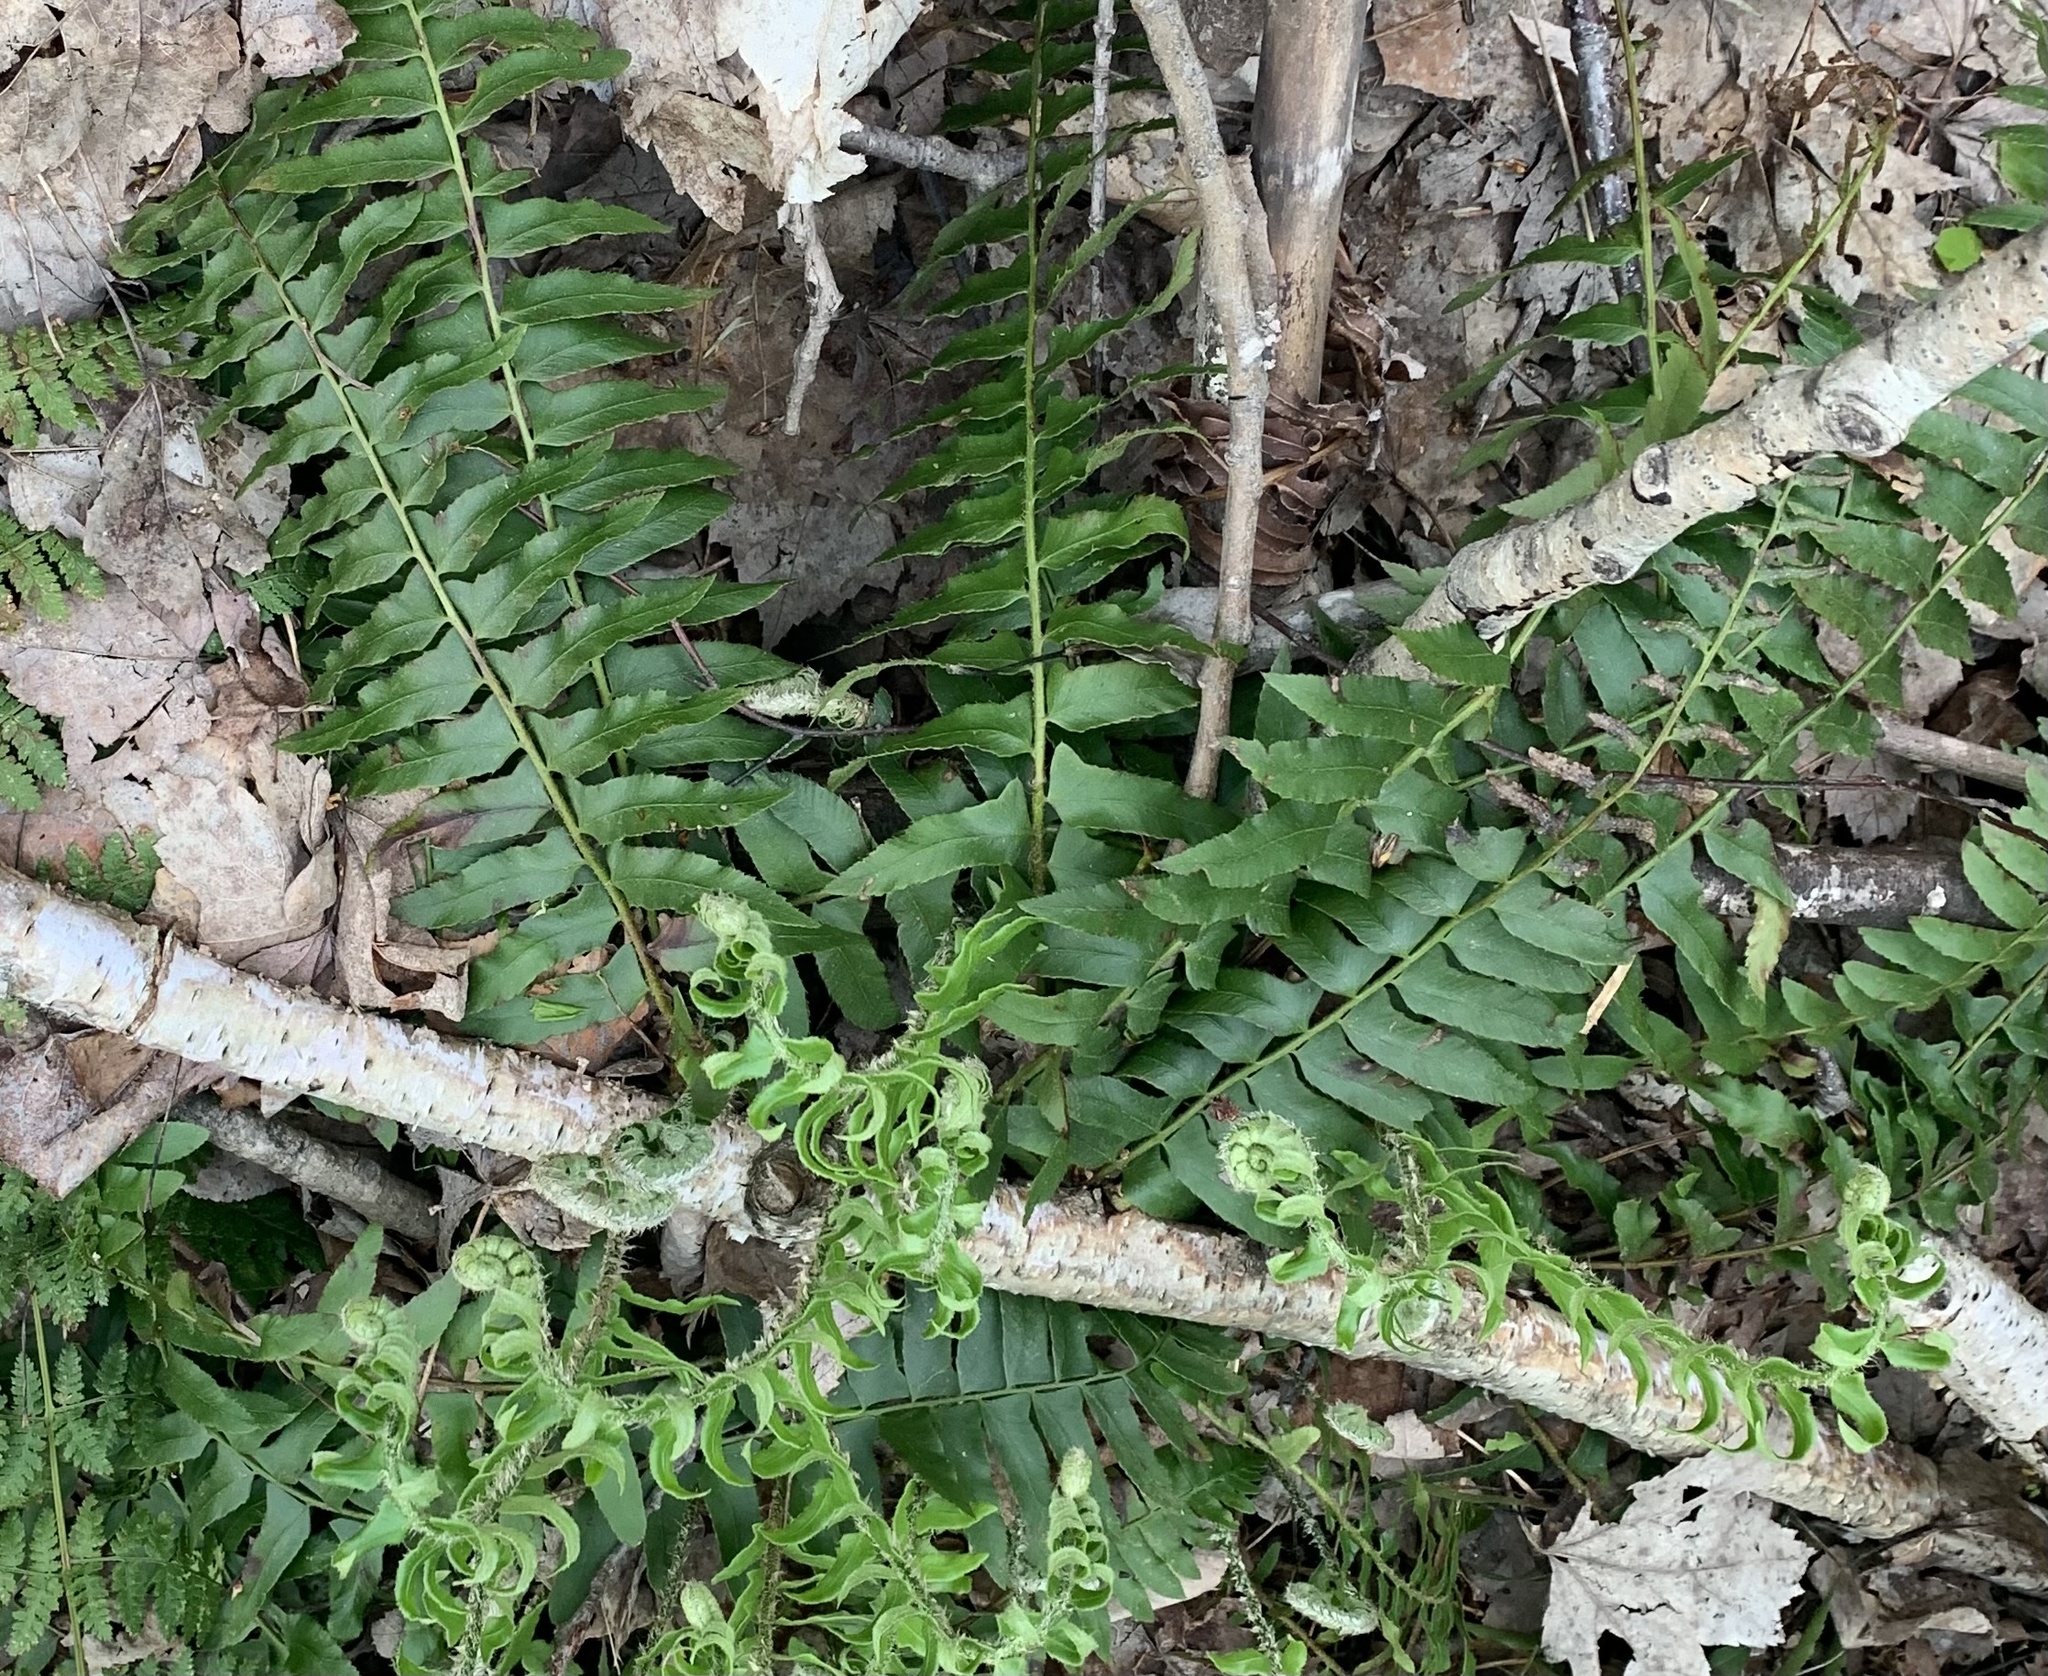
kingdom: Plantae
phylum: Tracheophyta
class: Polypodiopsida
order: Polypodiales
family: Dryopteridaceae
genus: Polystichum
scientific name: Polystichum acrostichoides
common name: Christmas fern
